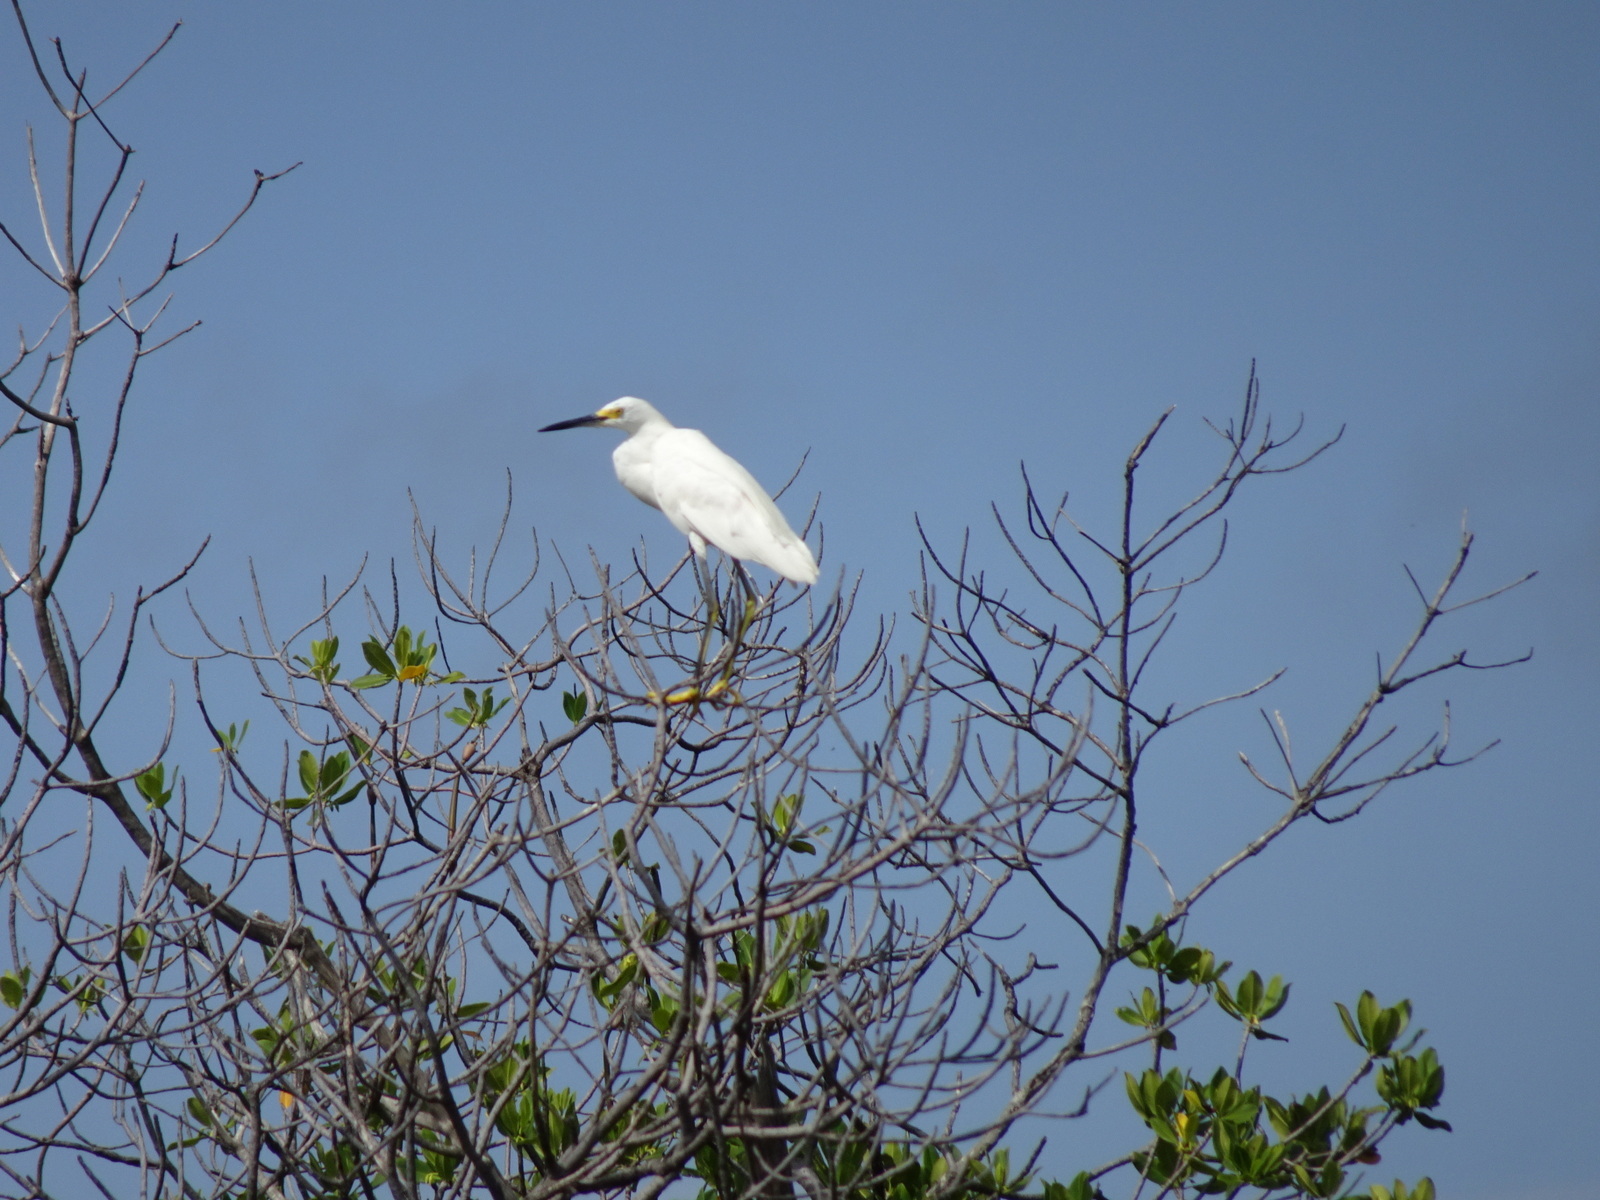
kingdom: Animalia
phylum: Chordata
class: Aves
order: Pelecaniformes
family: Ardeidae
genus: Egretta
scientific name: Egretta thula
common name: Snowy egret
